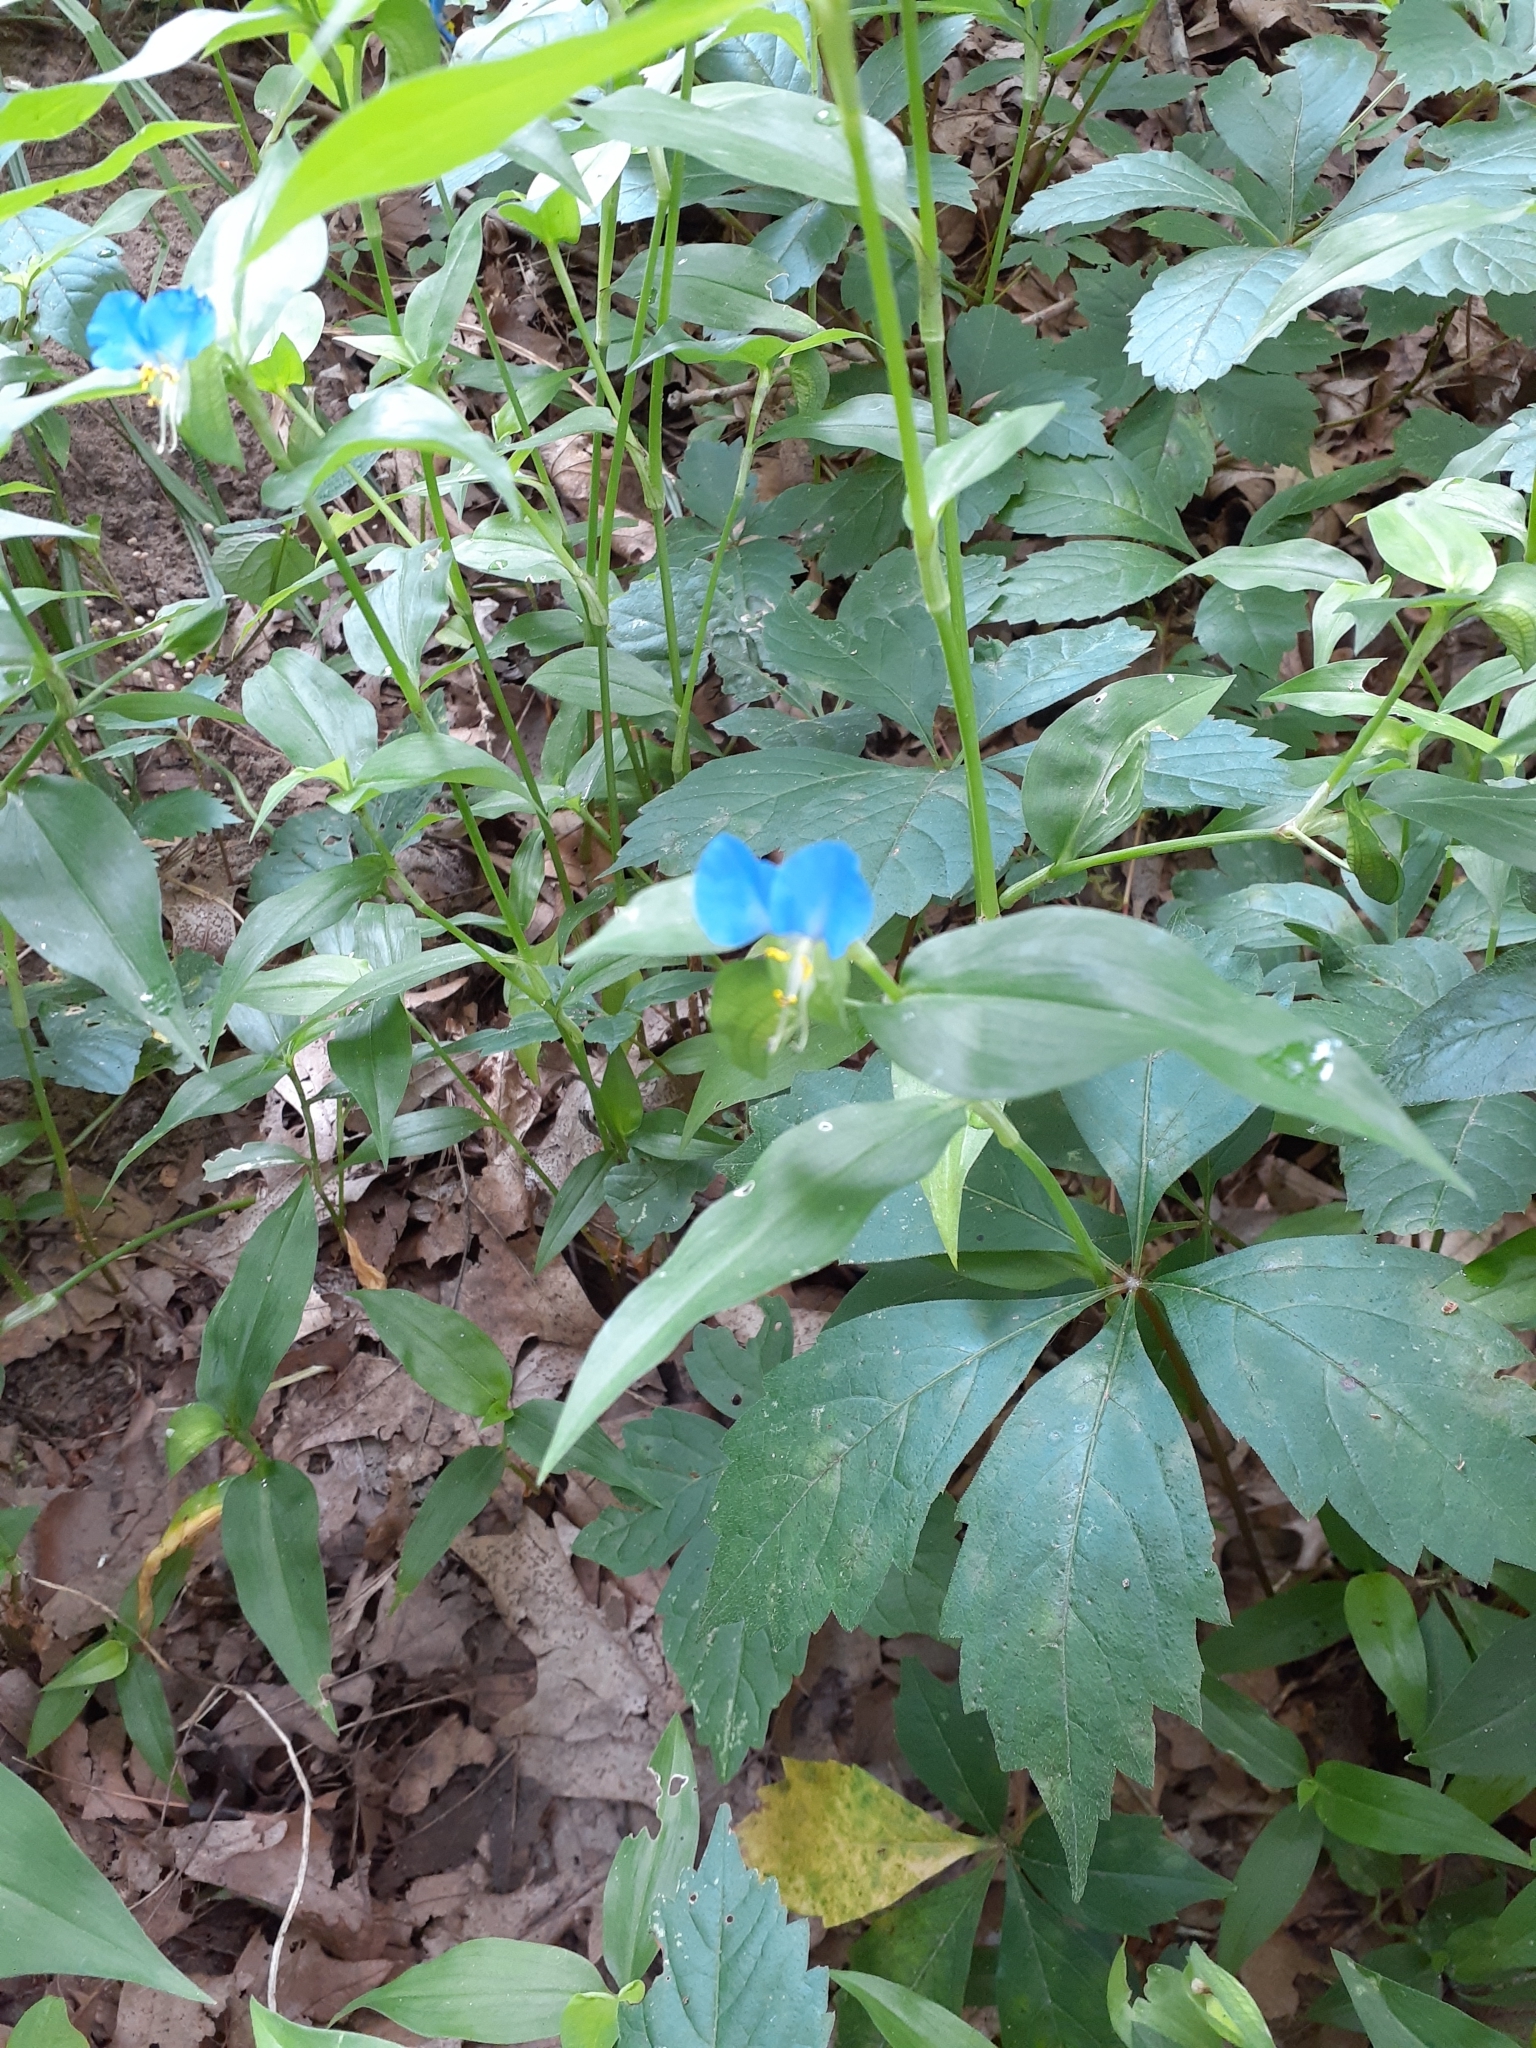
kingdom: Plantae
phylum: Tracheophyta
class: Liliopsida
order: Commelinales
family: Commelinaceae
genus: Commelina
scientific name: Commelina communis
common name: Asiatic dayflower
